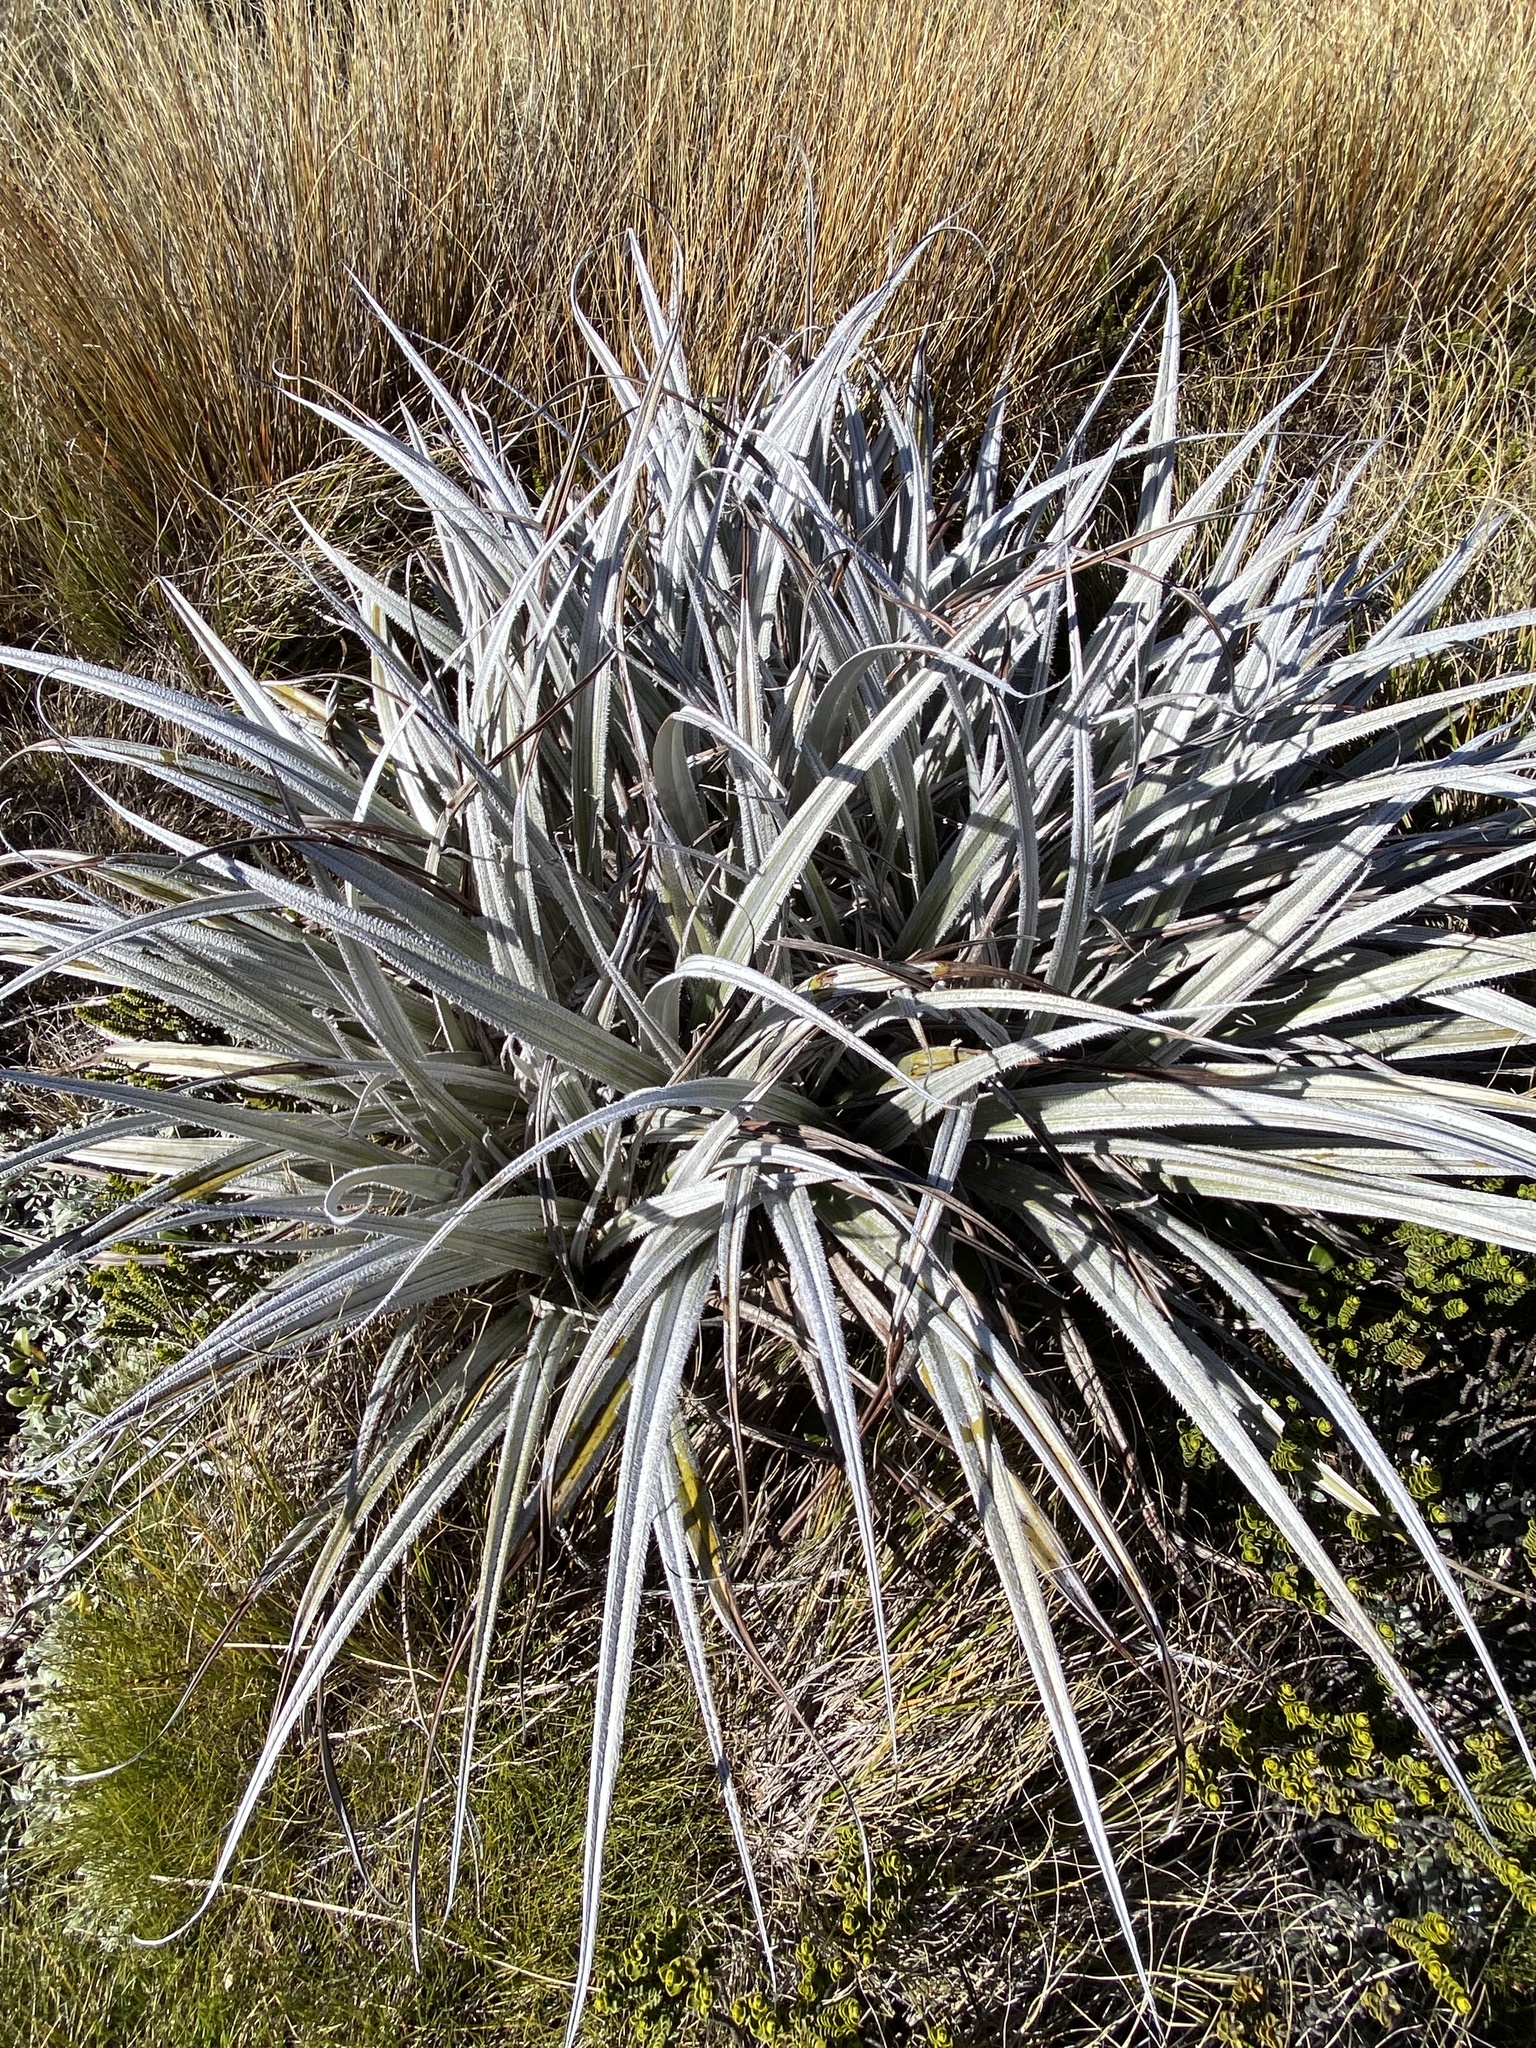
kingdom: Plantae
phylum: Tracheophyta
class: Liliopsida
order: Asparagales
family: Asteliaceae
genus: Astelia
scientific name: Astelia nervosa
